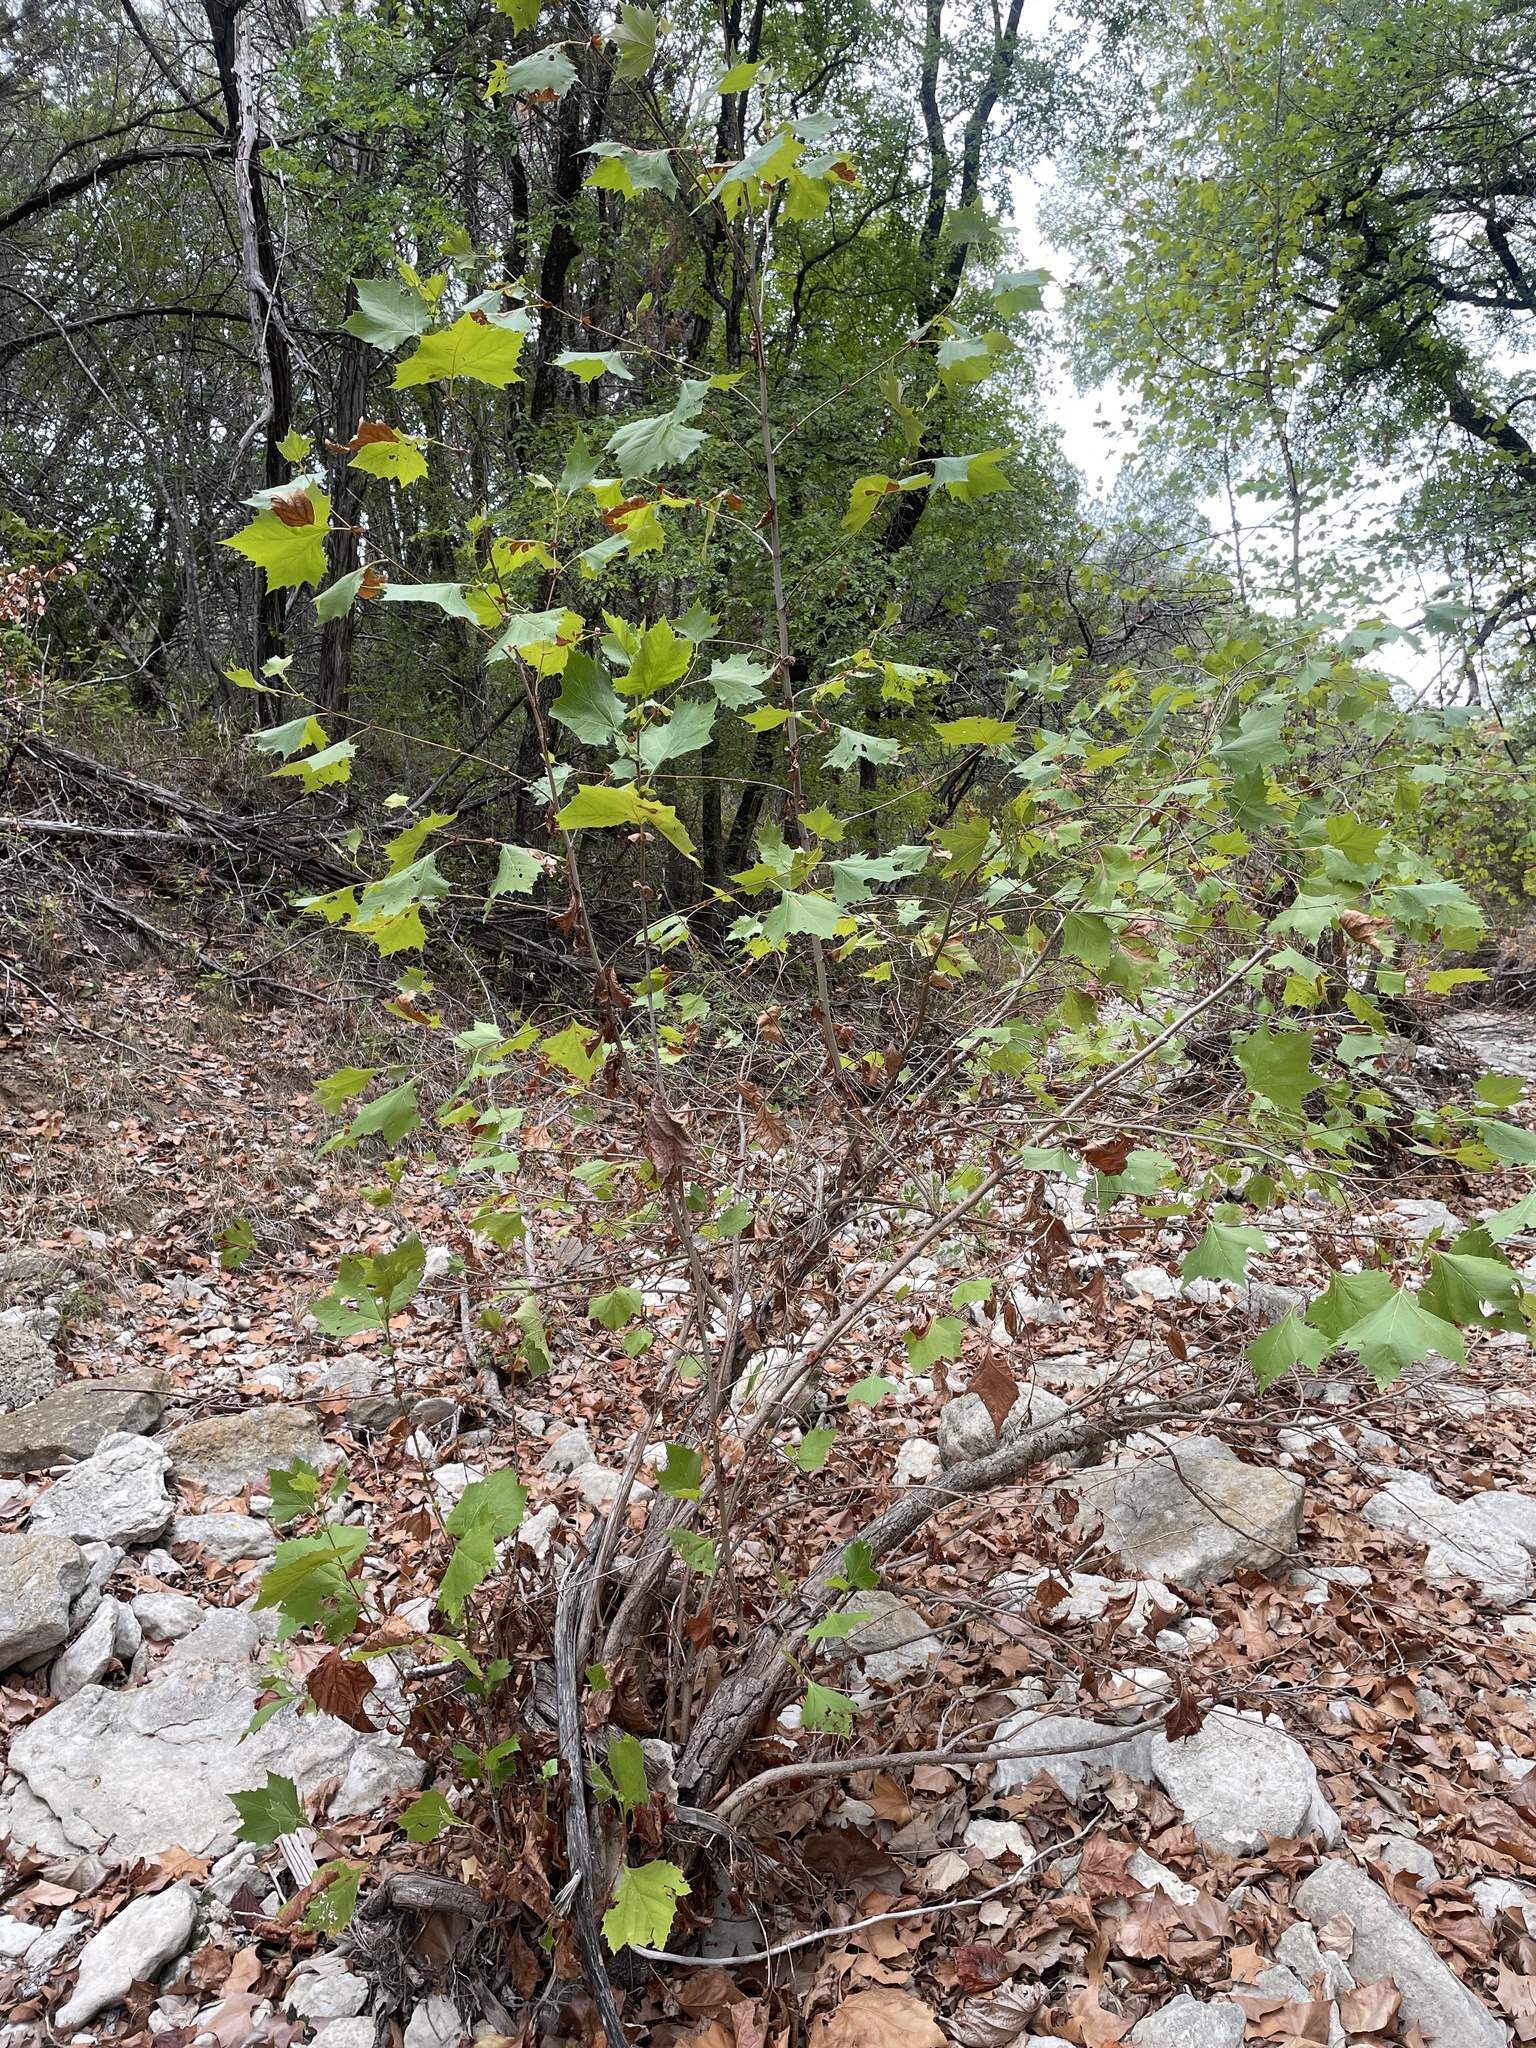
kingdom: Plantae
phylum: Tracheophyta
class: Magnoliopsida
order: Proteales
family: Platanaceae
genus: Platanus
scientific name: Platanus occidentalis
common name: American sycamore
